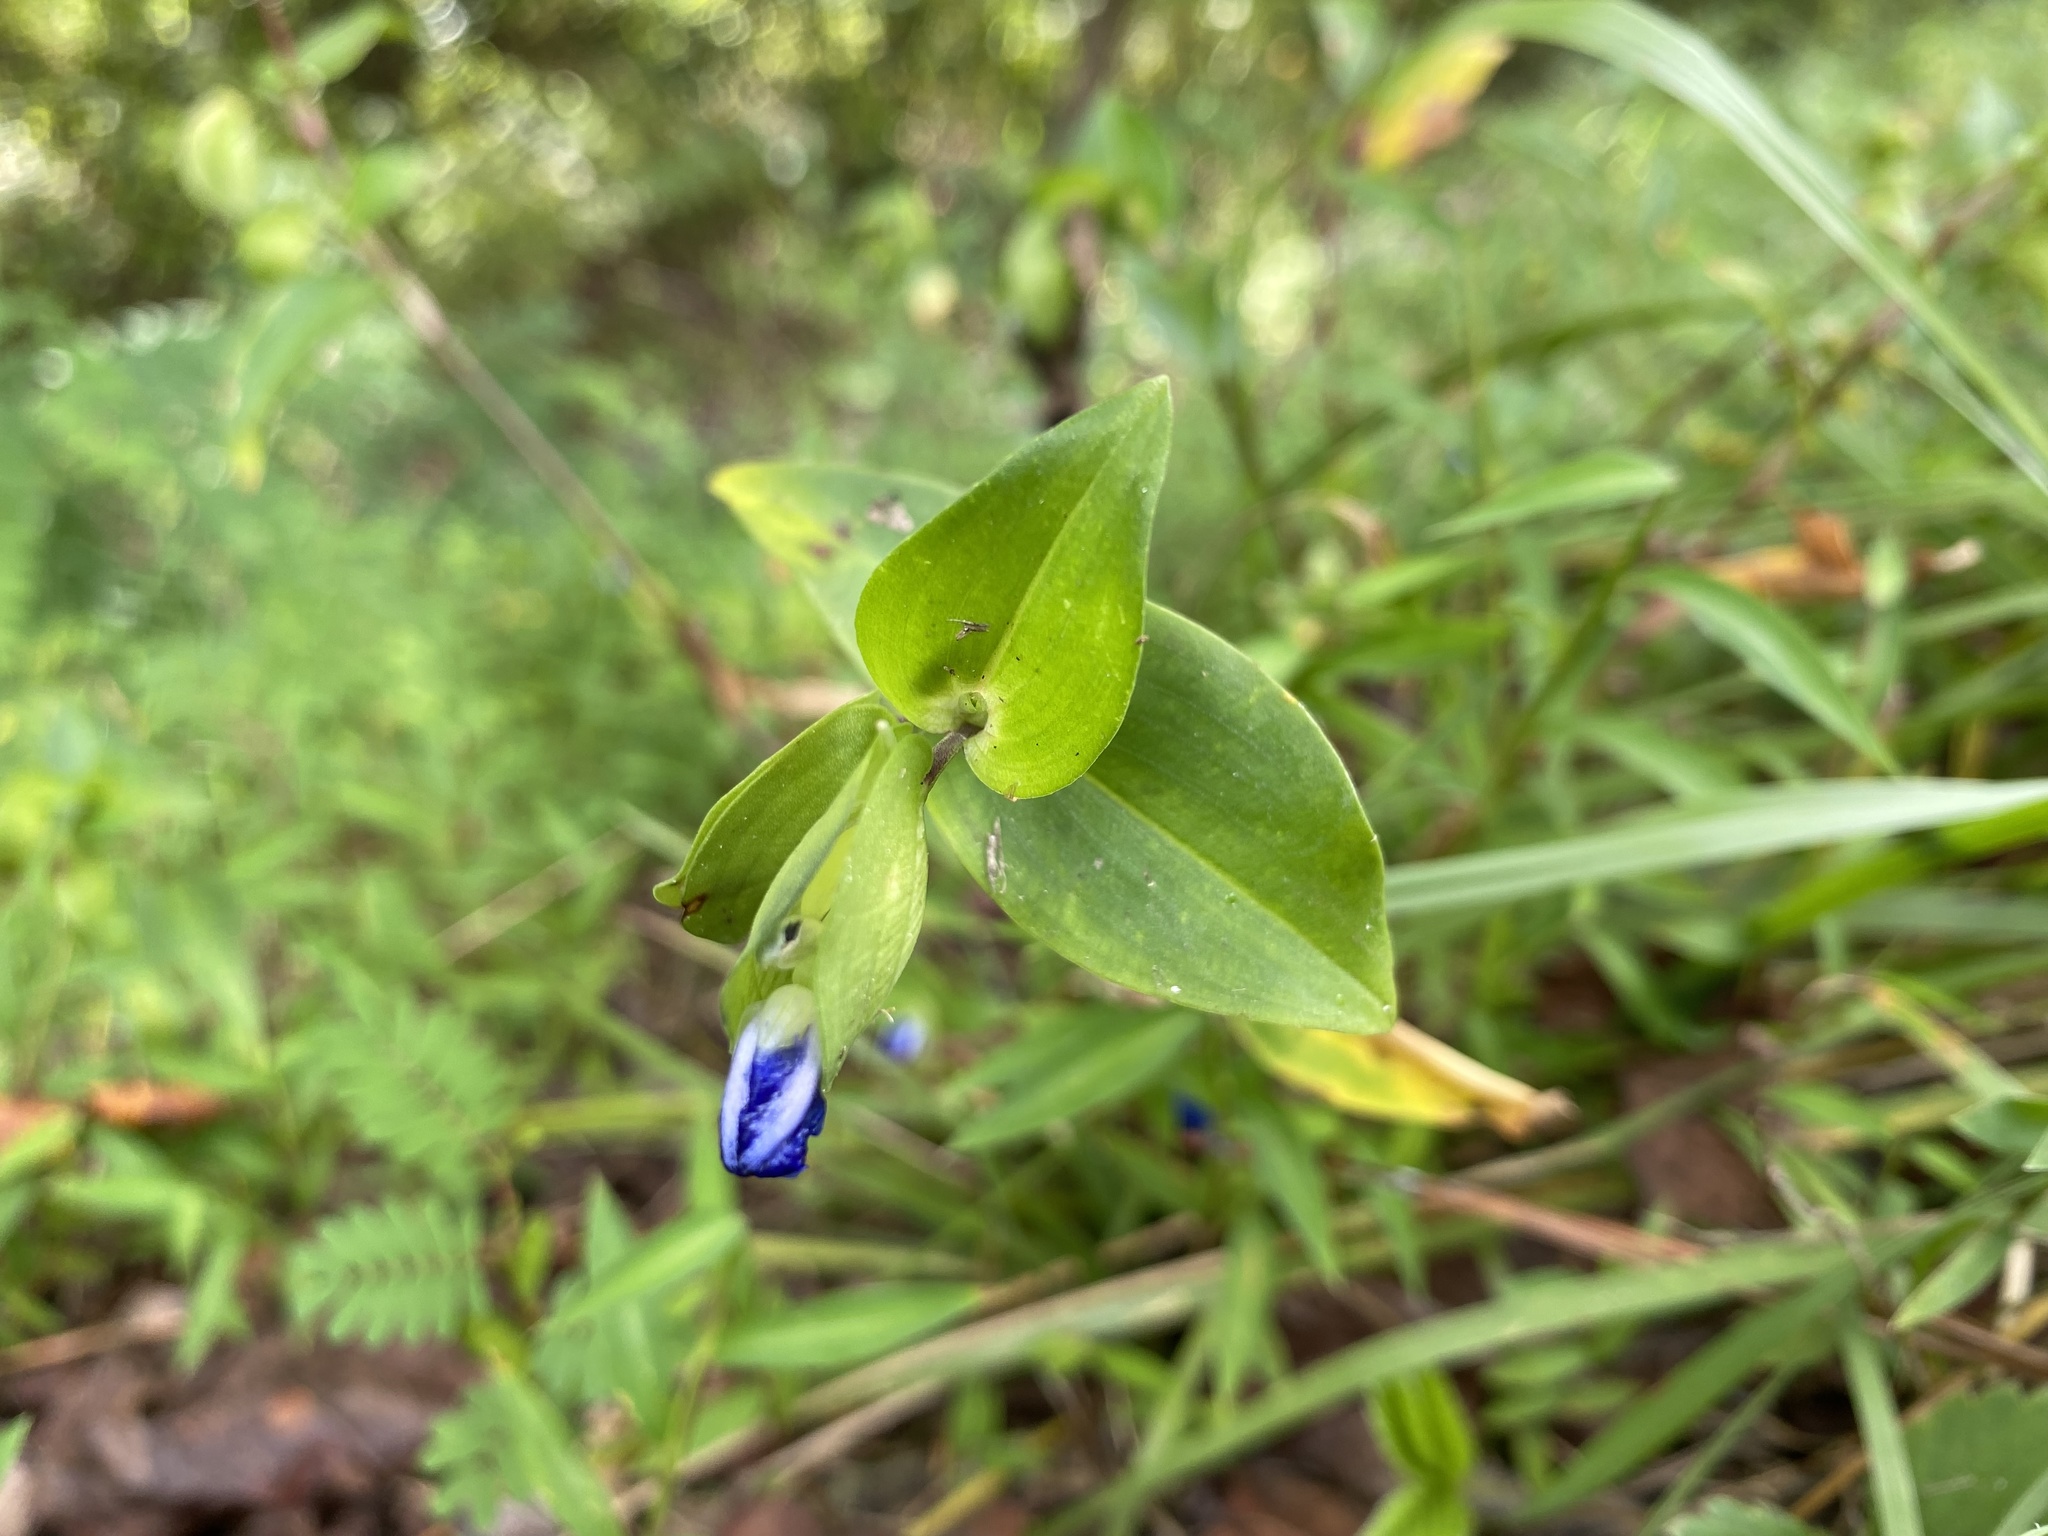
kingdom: Plantae
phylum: Tracheophyta
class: Liliopsida
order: Commelinales
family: Commelinaceae
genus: Commelina
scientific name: Commelina communis
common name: Asiatic dayflower
